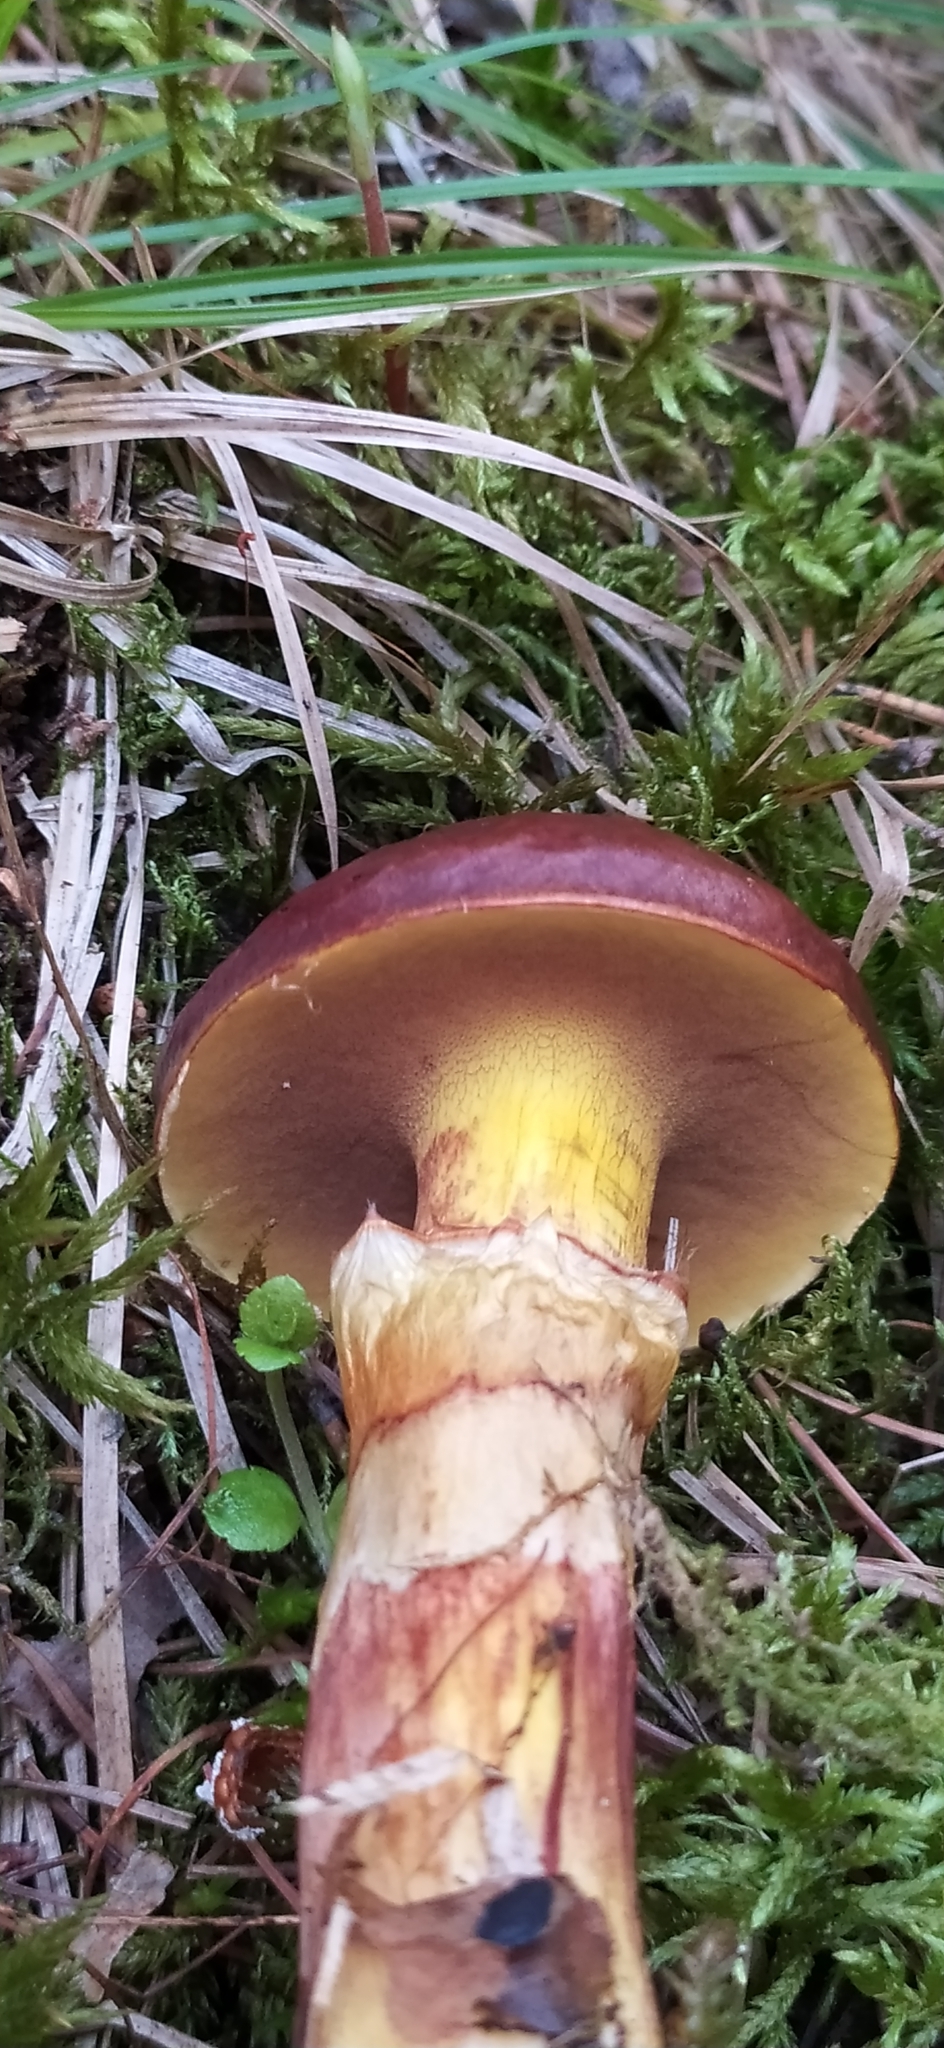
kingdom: Fungi
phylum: Basidiomycota
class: Agaricomycetes
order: Boletales
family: Suillaceae
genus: Suillus
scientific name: Suillus grevillei
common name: Larch bolete
